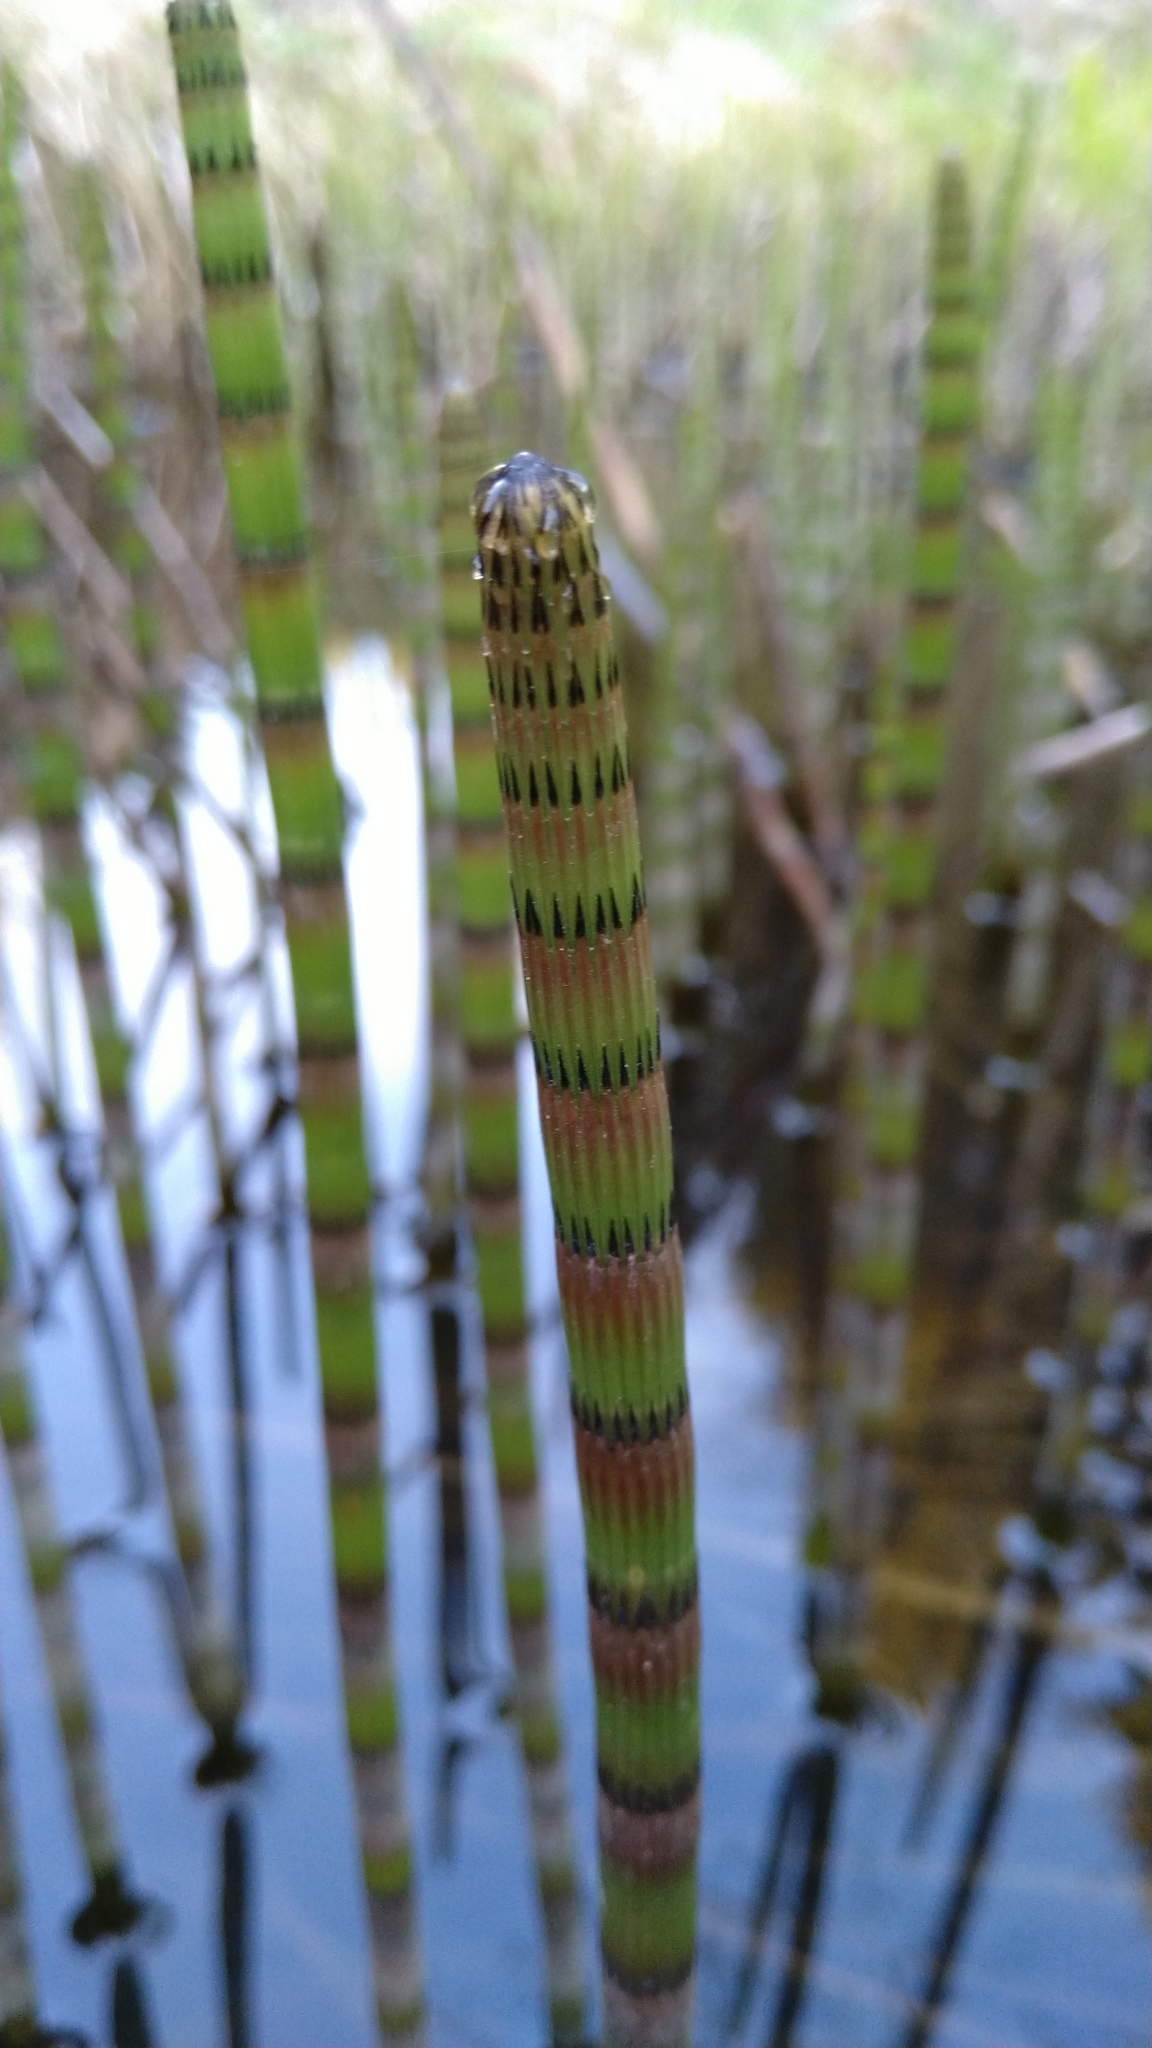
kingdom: Plantae
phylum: Tracheophyta
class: Polypodiopsida
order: Equisetales
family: Equisetaceae
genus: Equisetum
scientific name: Equisetum fluviatile
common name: Water horsetail
